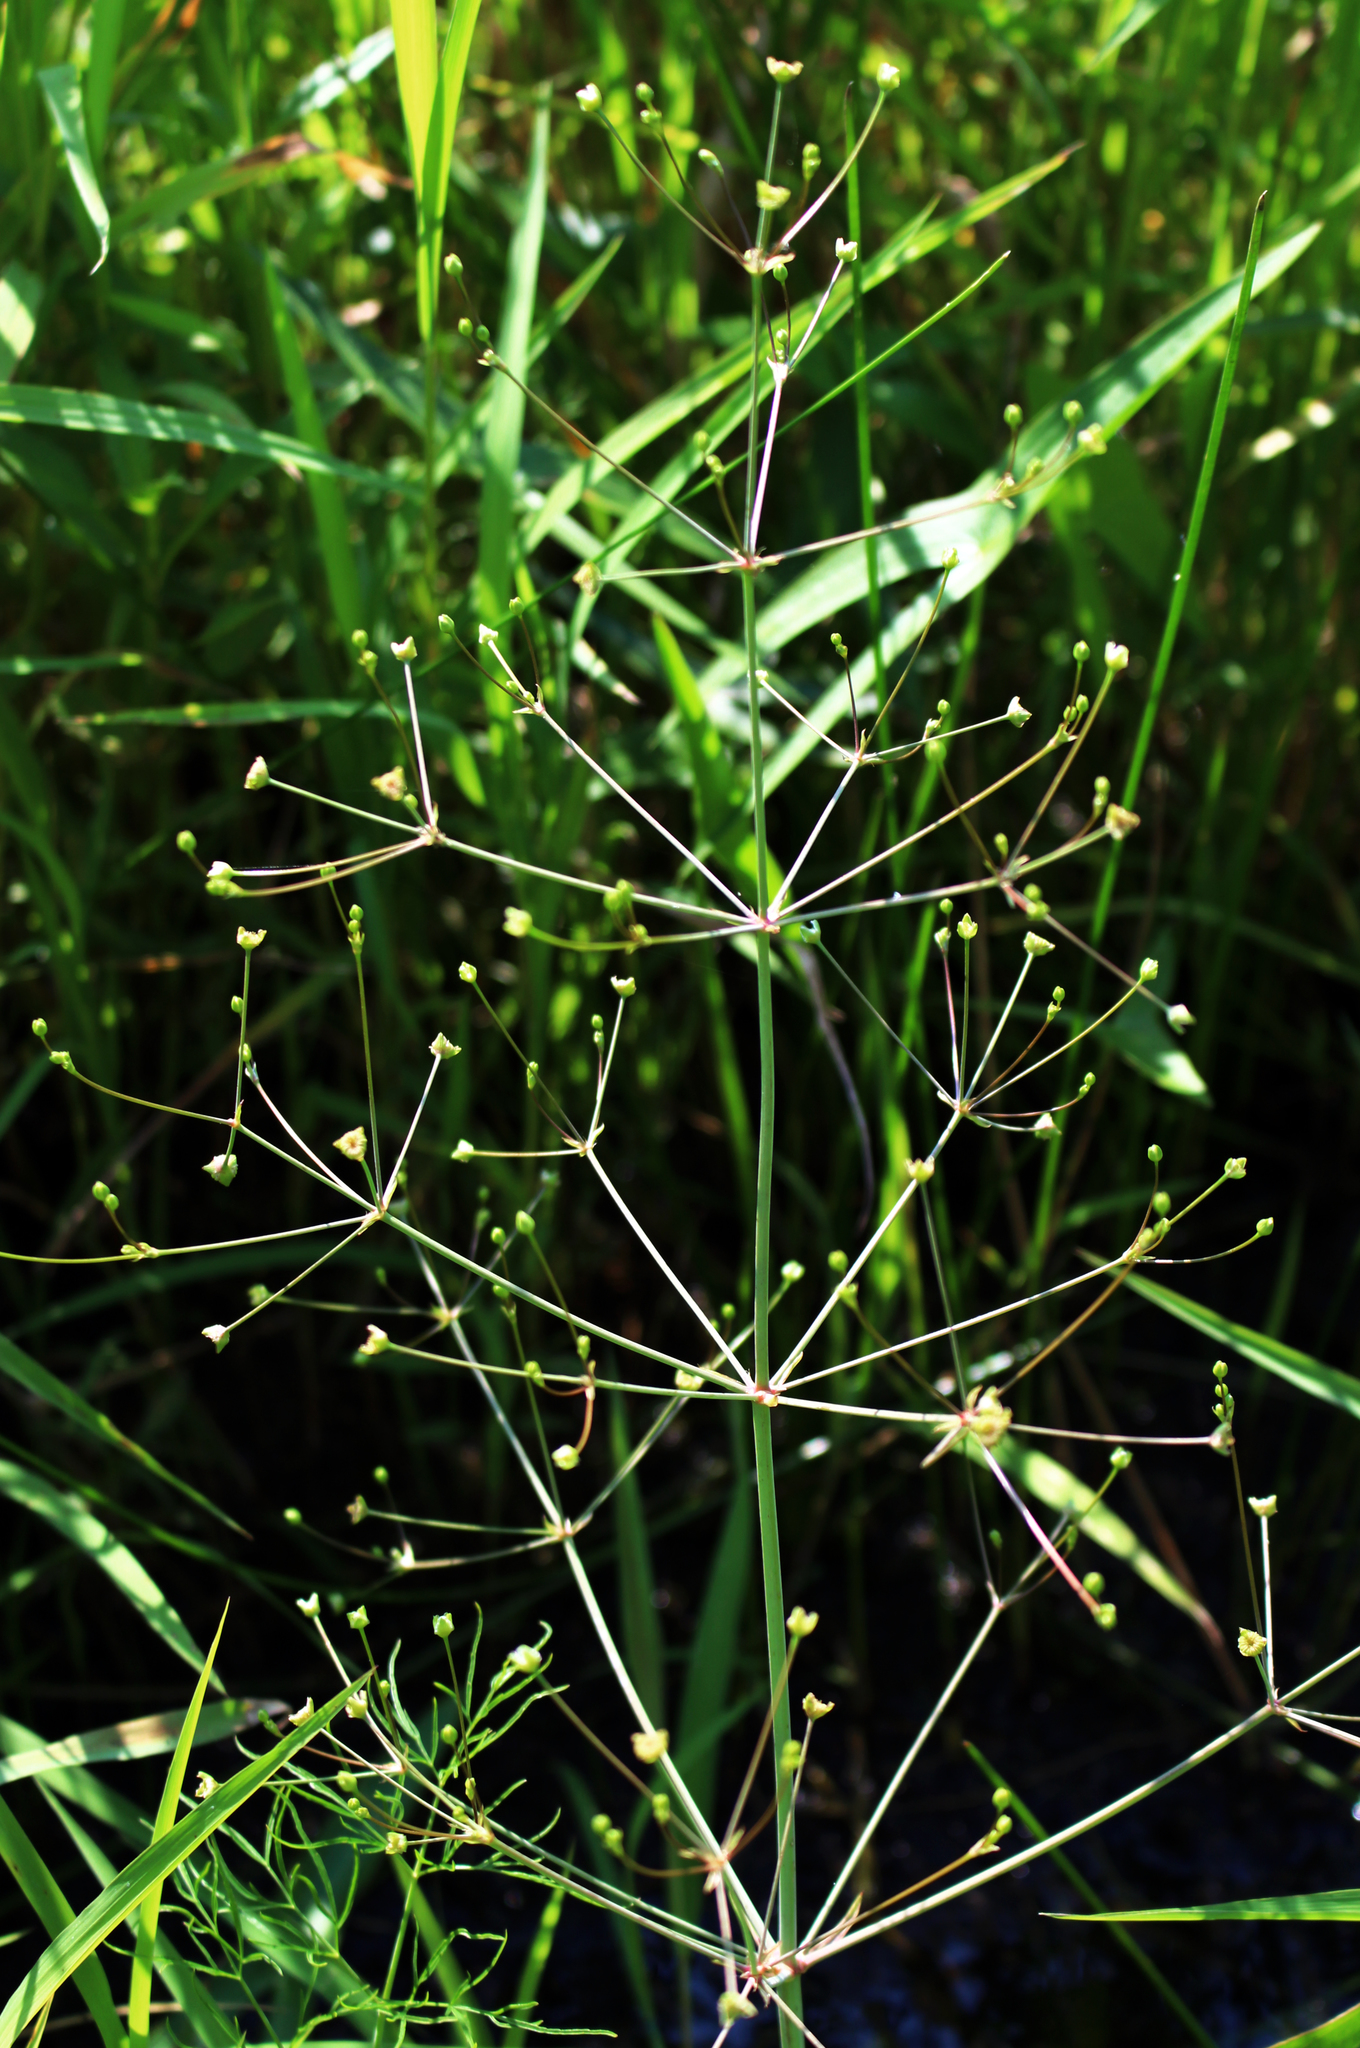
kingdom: Plantae
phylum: Tracheophyta
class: Liliopsida
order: Alismatales
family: Alismataceae
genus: Alisma
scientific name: Alisma triviale
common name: Northern water-plantain
